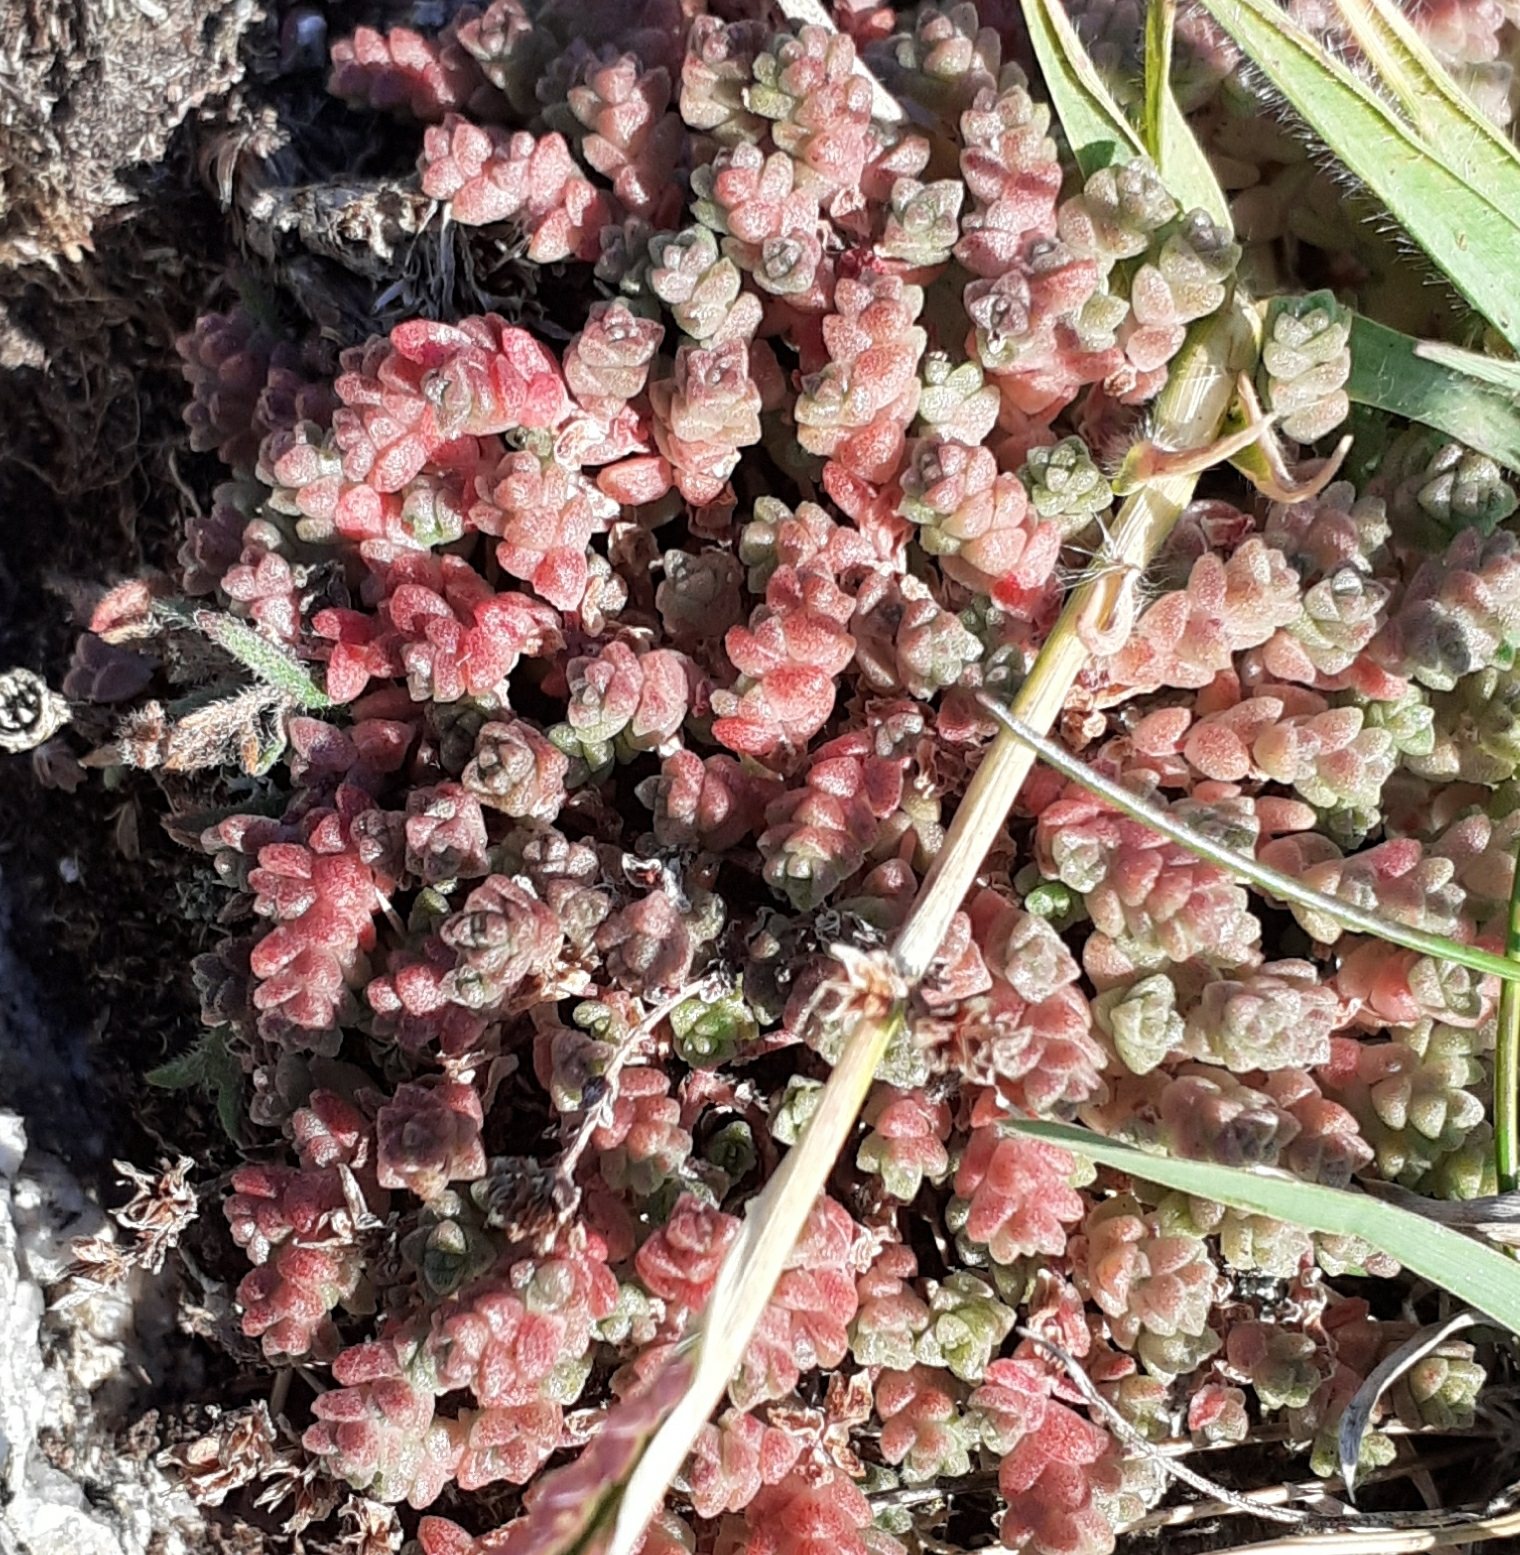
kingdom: Plantae
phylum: Tracheophyta
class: Magnoliopsida
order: Saxifragales
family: Crassulaceae
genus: Sedum
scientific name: Sedum anglicum
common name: English stonecrop
